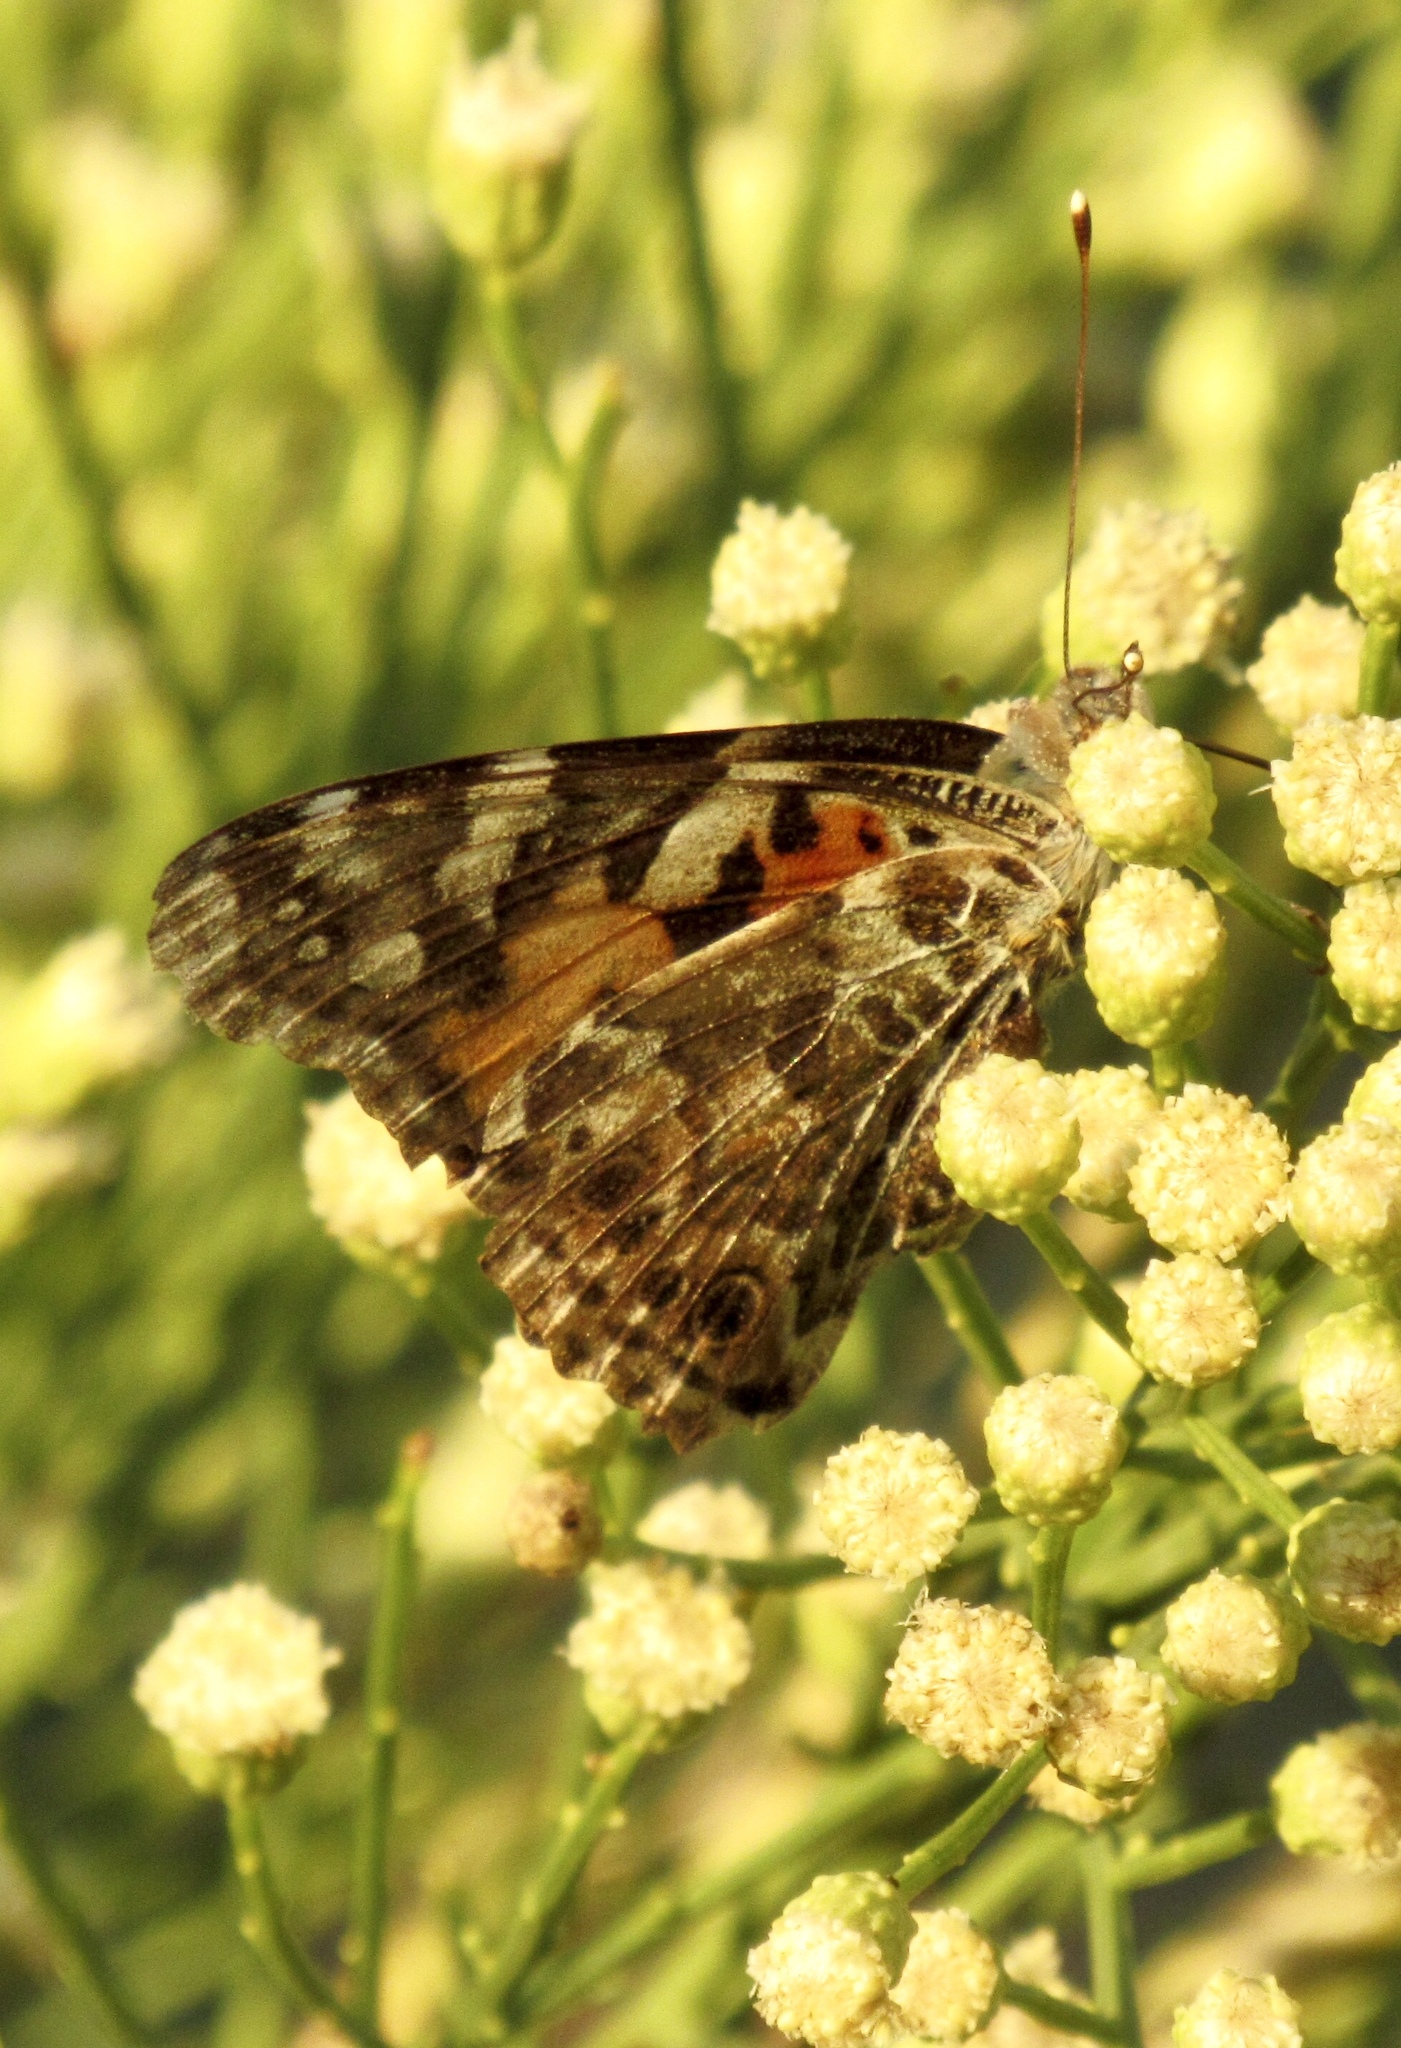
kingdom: Animalia
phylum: Arthropoda
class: Insecta
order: Lepidoptera
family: Nymphalidae
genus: Vanessa
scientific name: Vanessa cardui
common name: Painted lady
